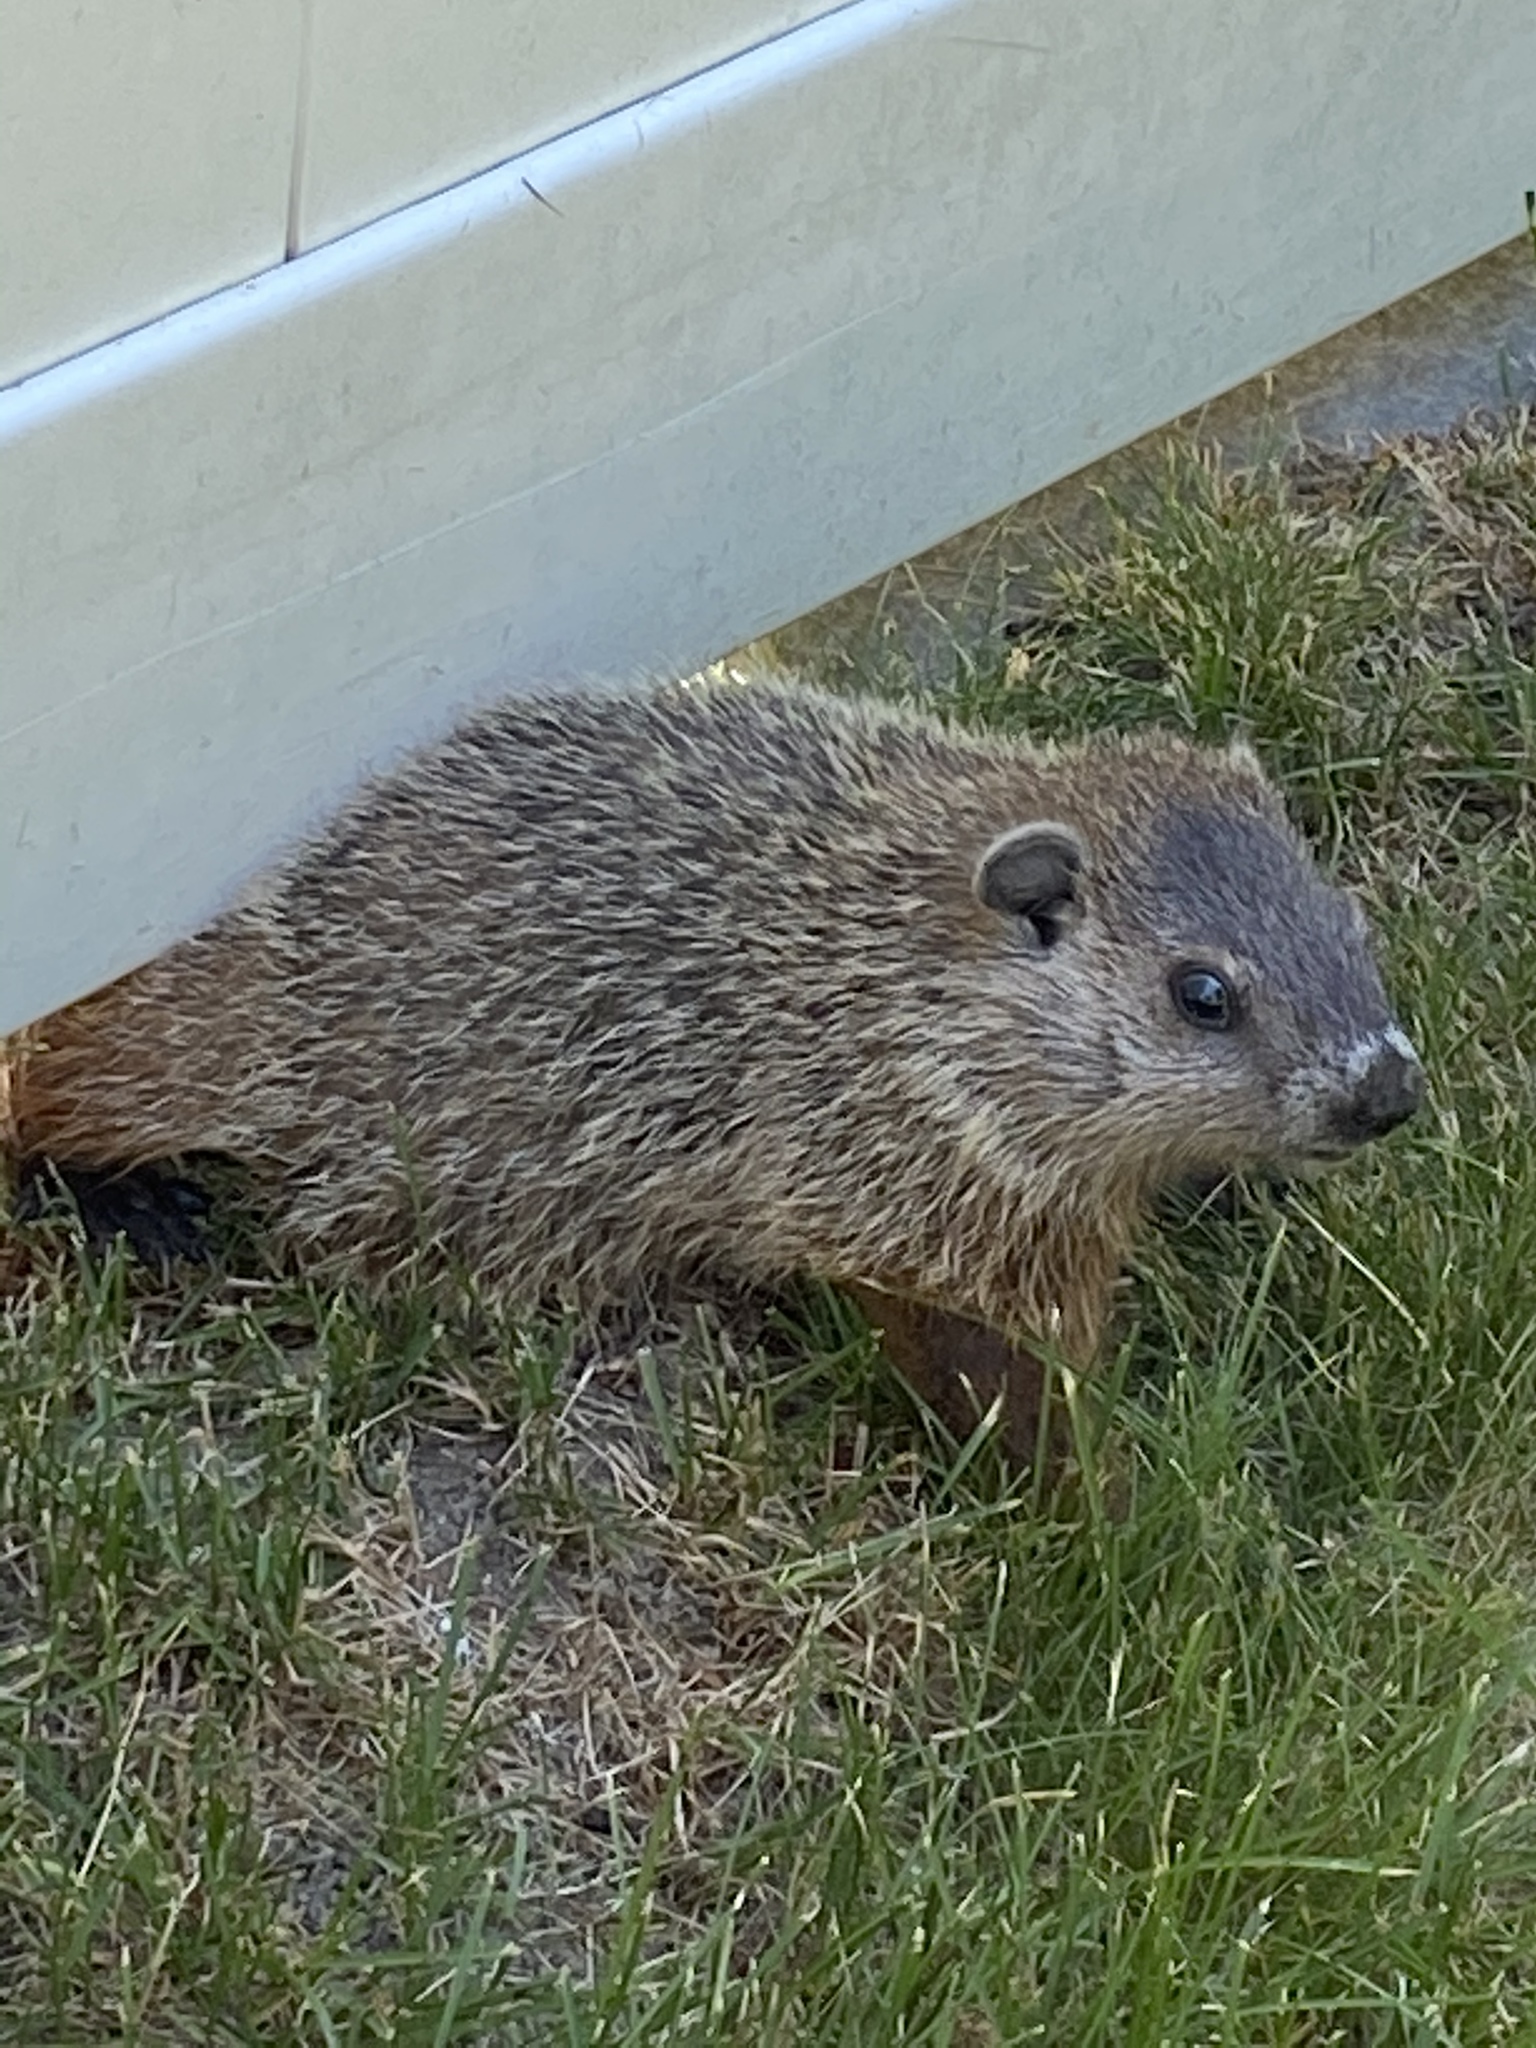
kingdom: Animalia
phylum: Chordata
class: Mammalia
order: Rodentia
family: Sciuridae
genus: Marmota
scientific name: Marmota monax
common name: Groundhog
